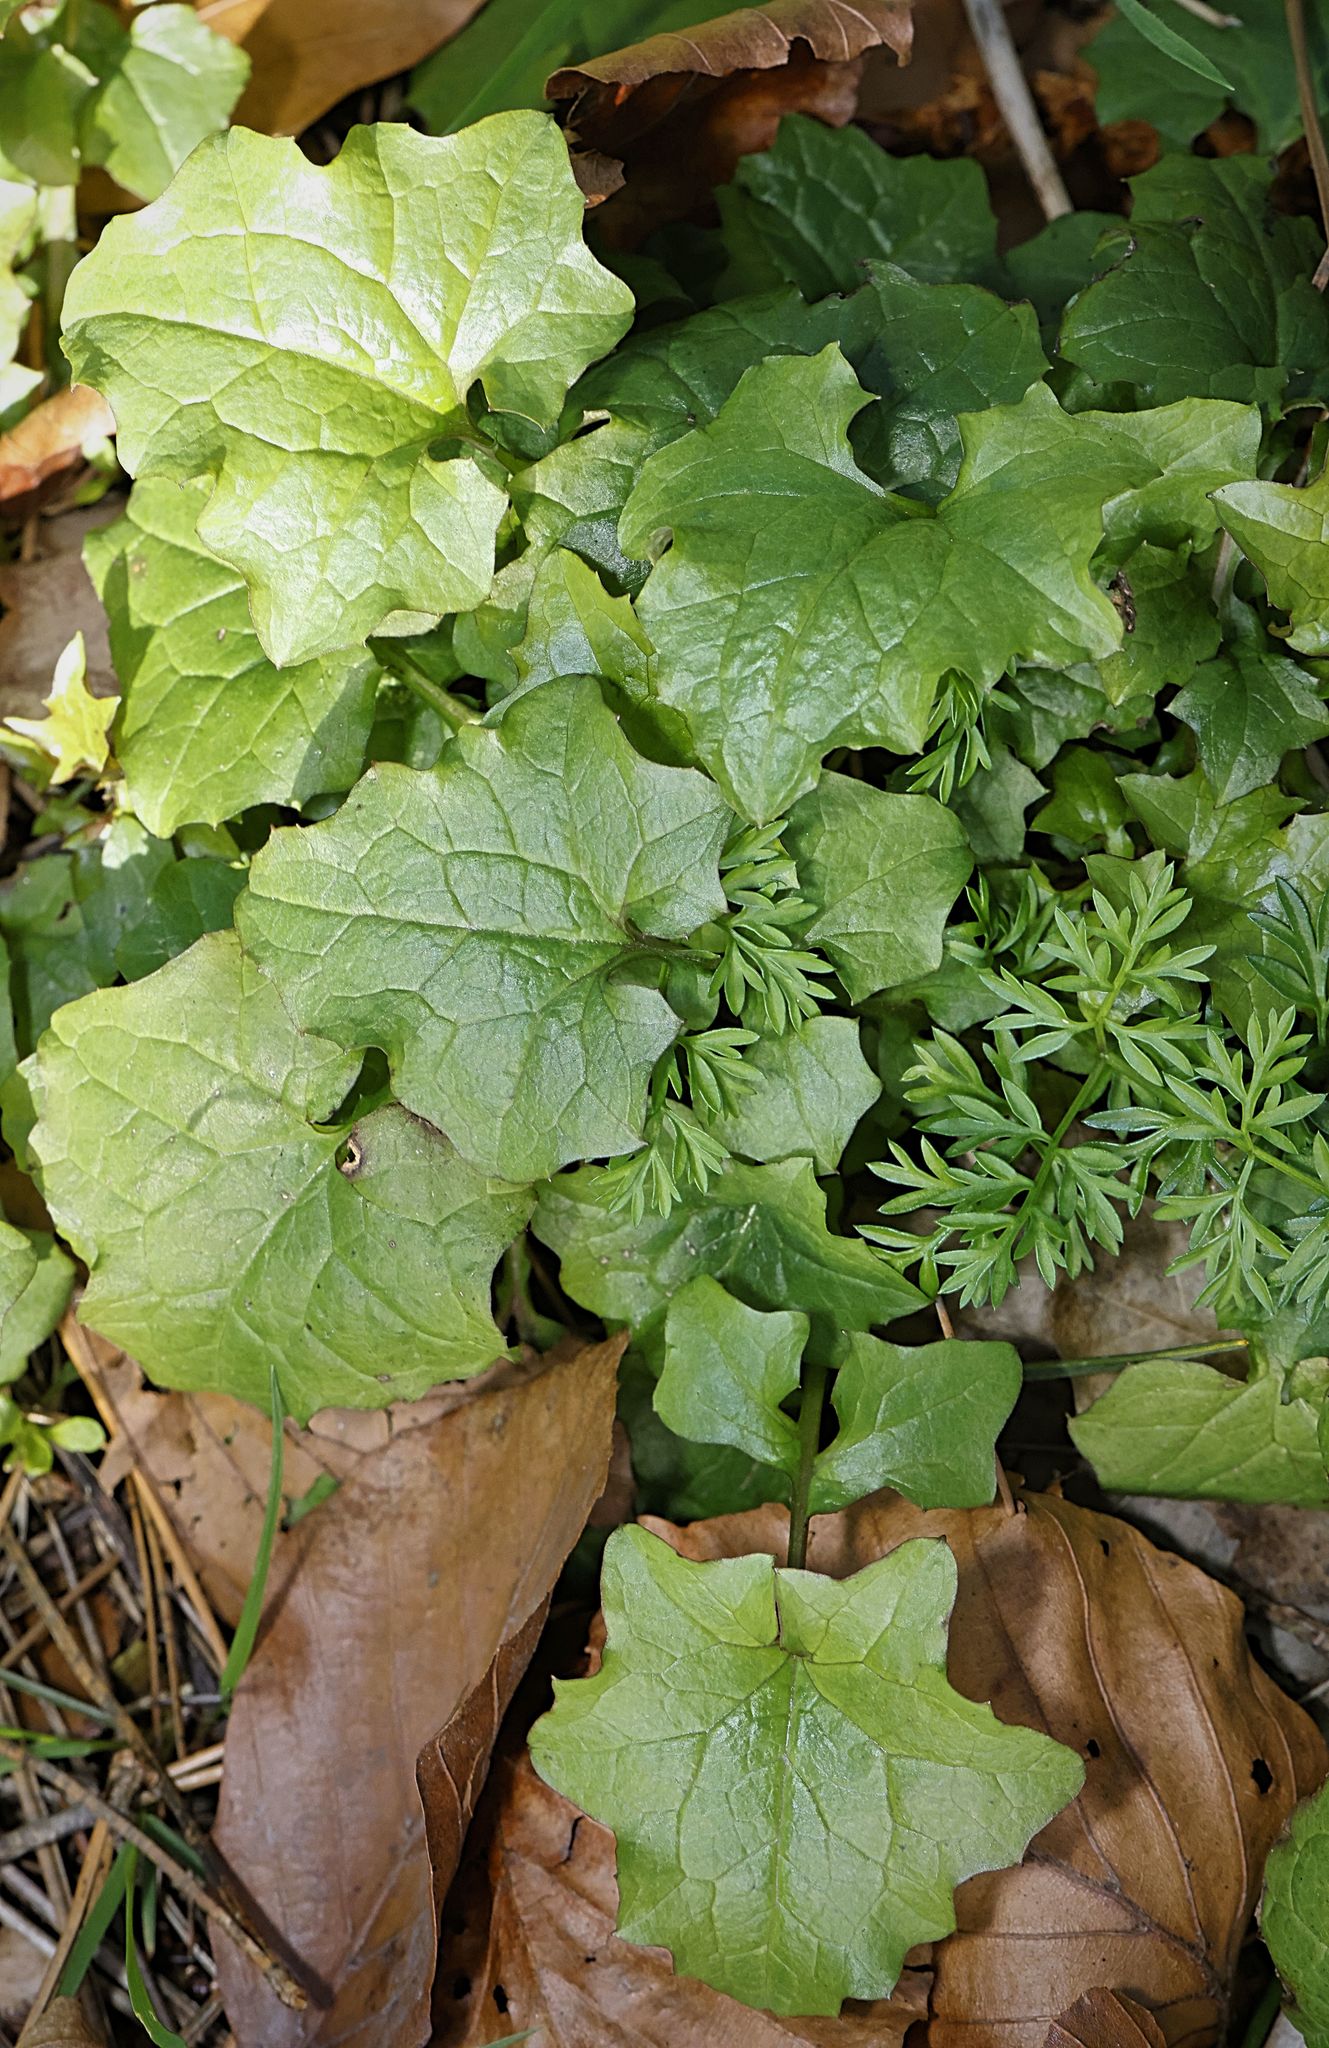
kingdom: Plantae
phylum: Tracheophyta
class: Magnoliopsida
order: Asterales
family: Asteraceae
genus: Mycelis
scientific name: Mycelis muralis
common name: Wall lettuce
